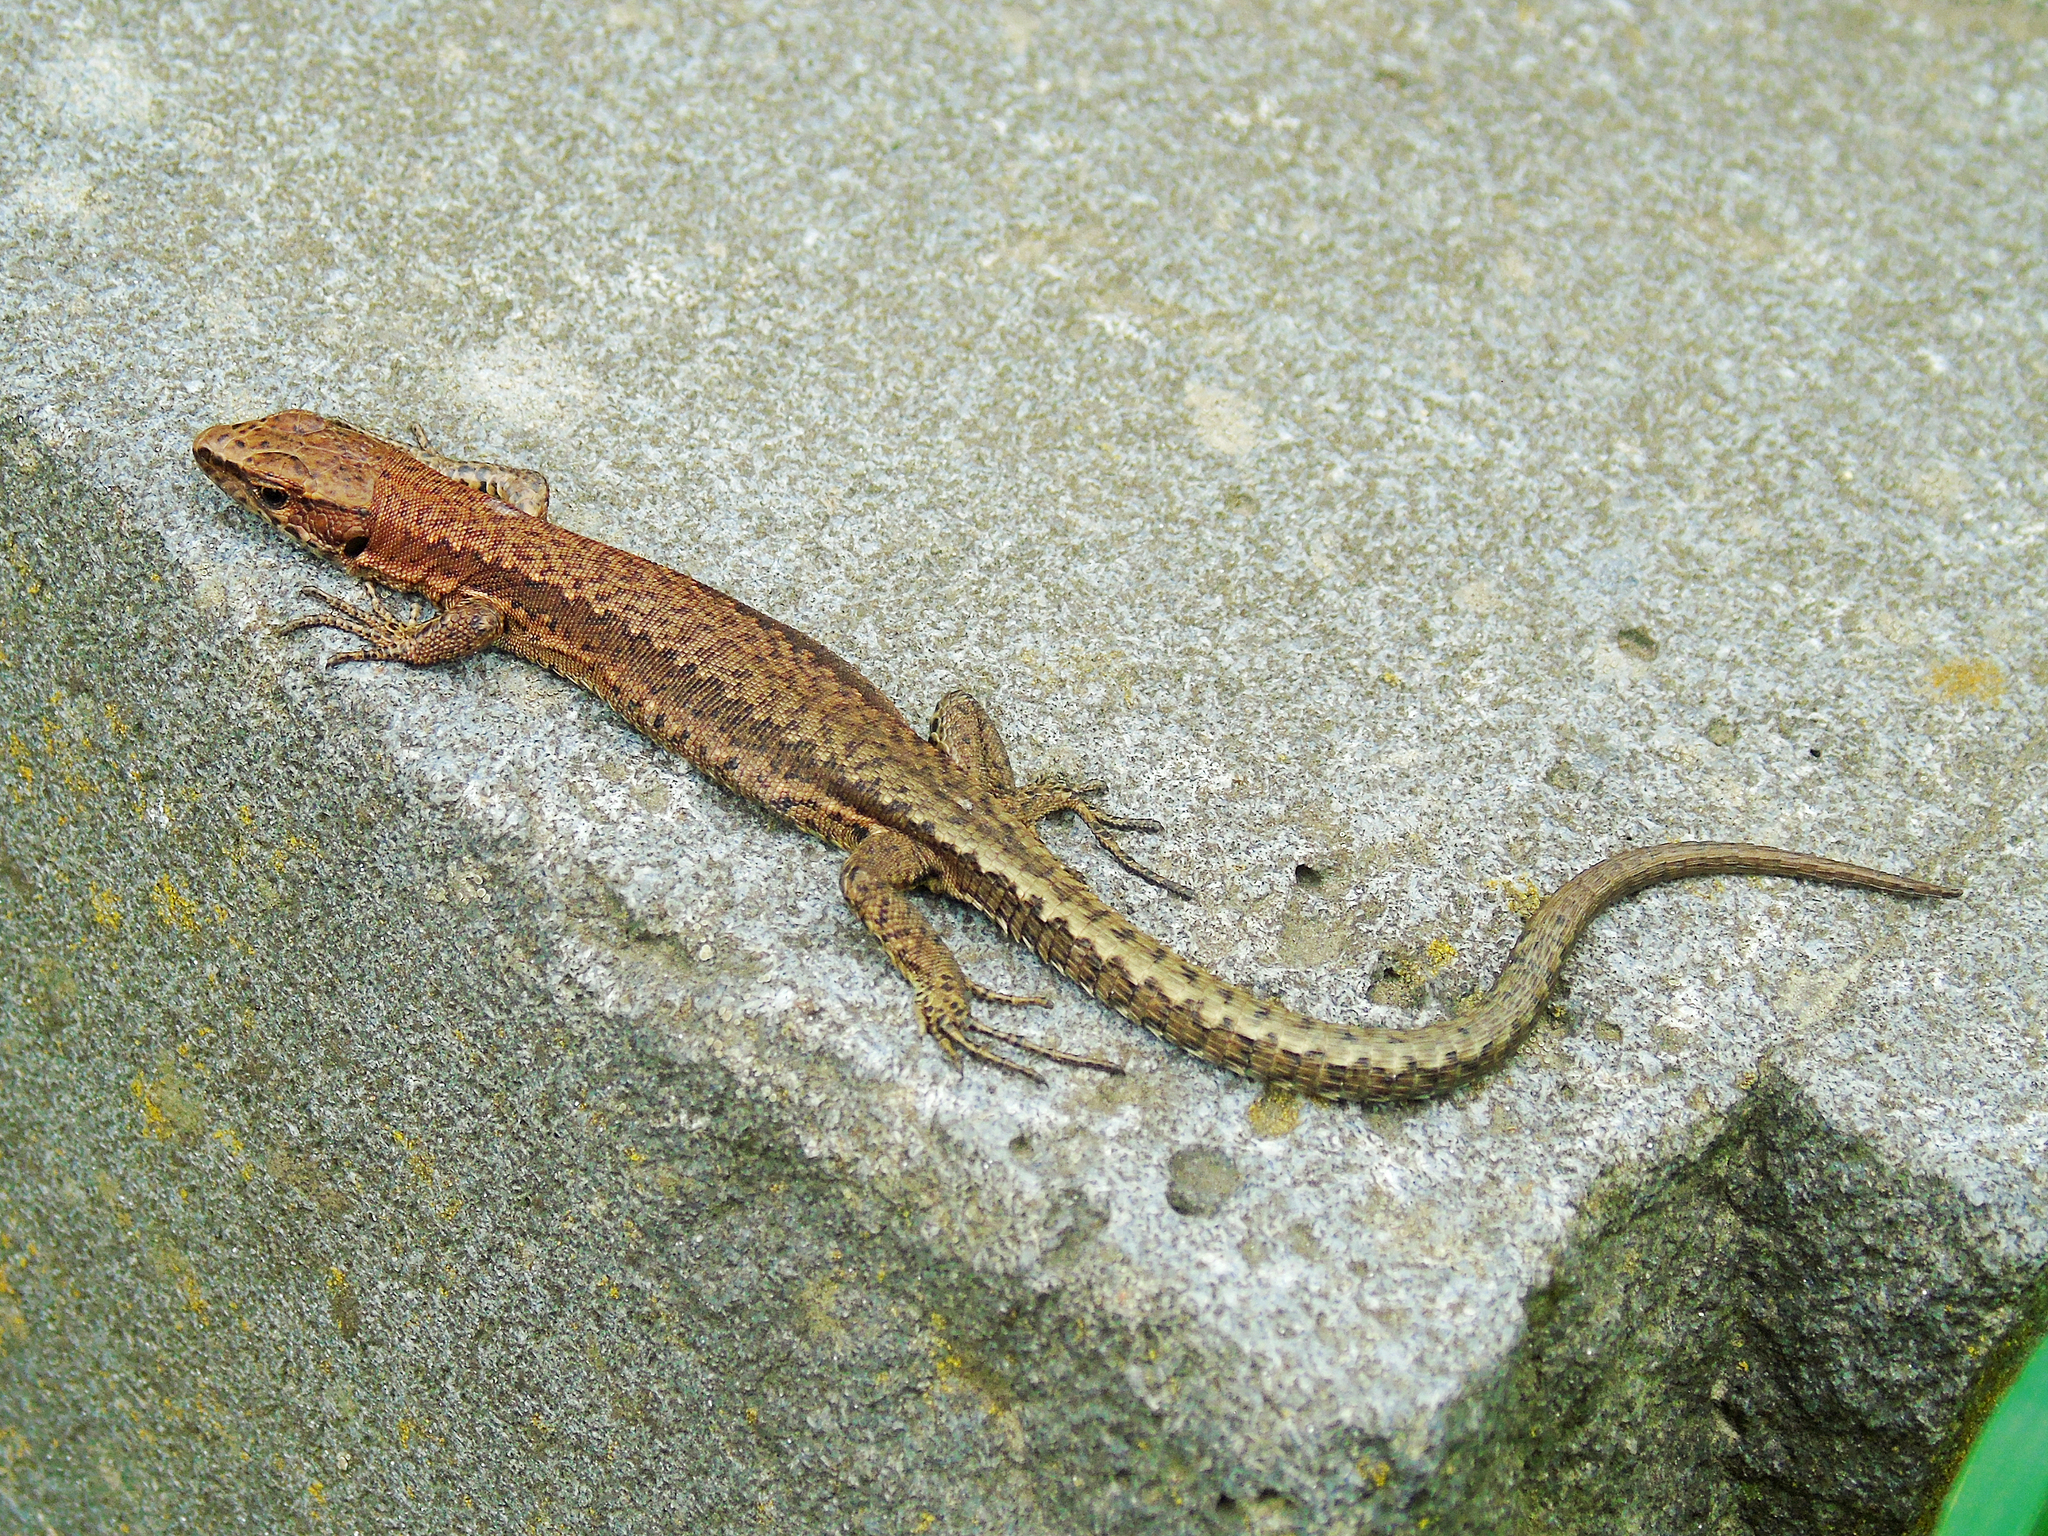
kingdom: Animalia
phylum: Chordata
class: Squamata
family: Lacertidae
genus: Darevskia
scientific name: Darevskia derjugini
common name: Derjugin's lizard
